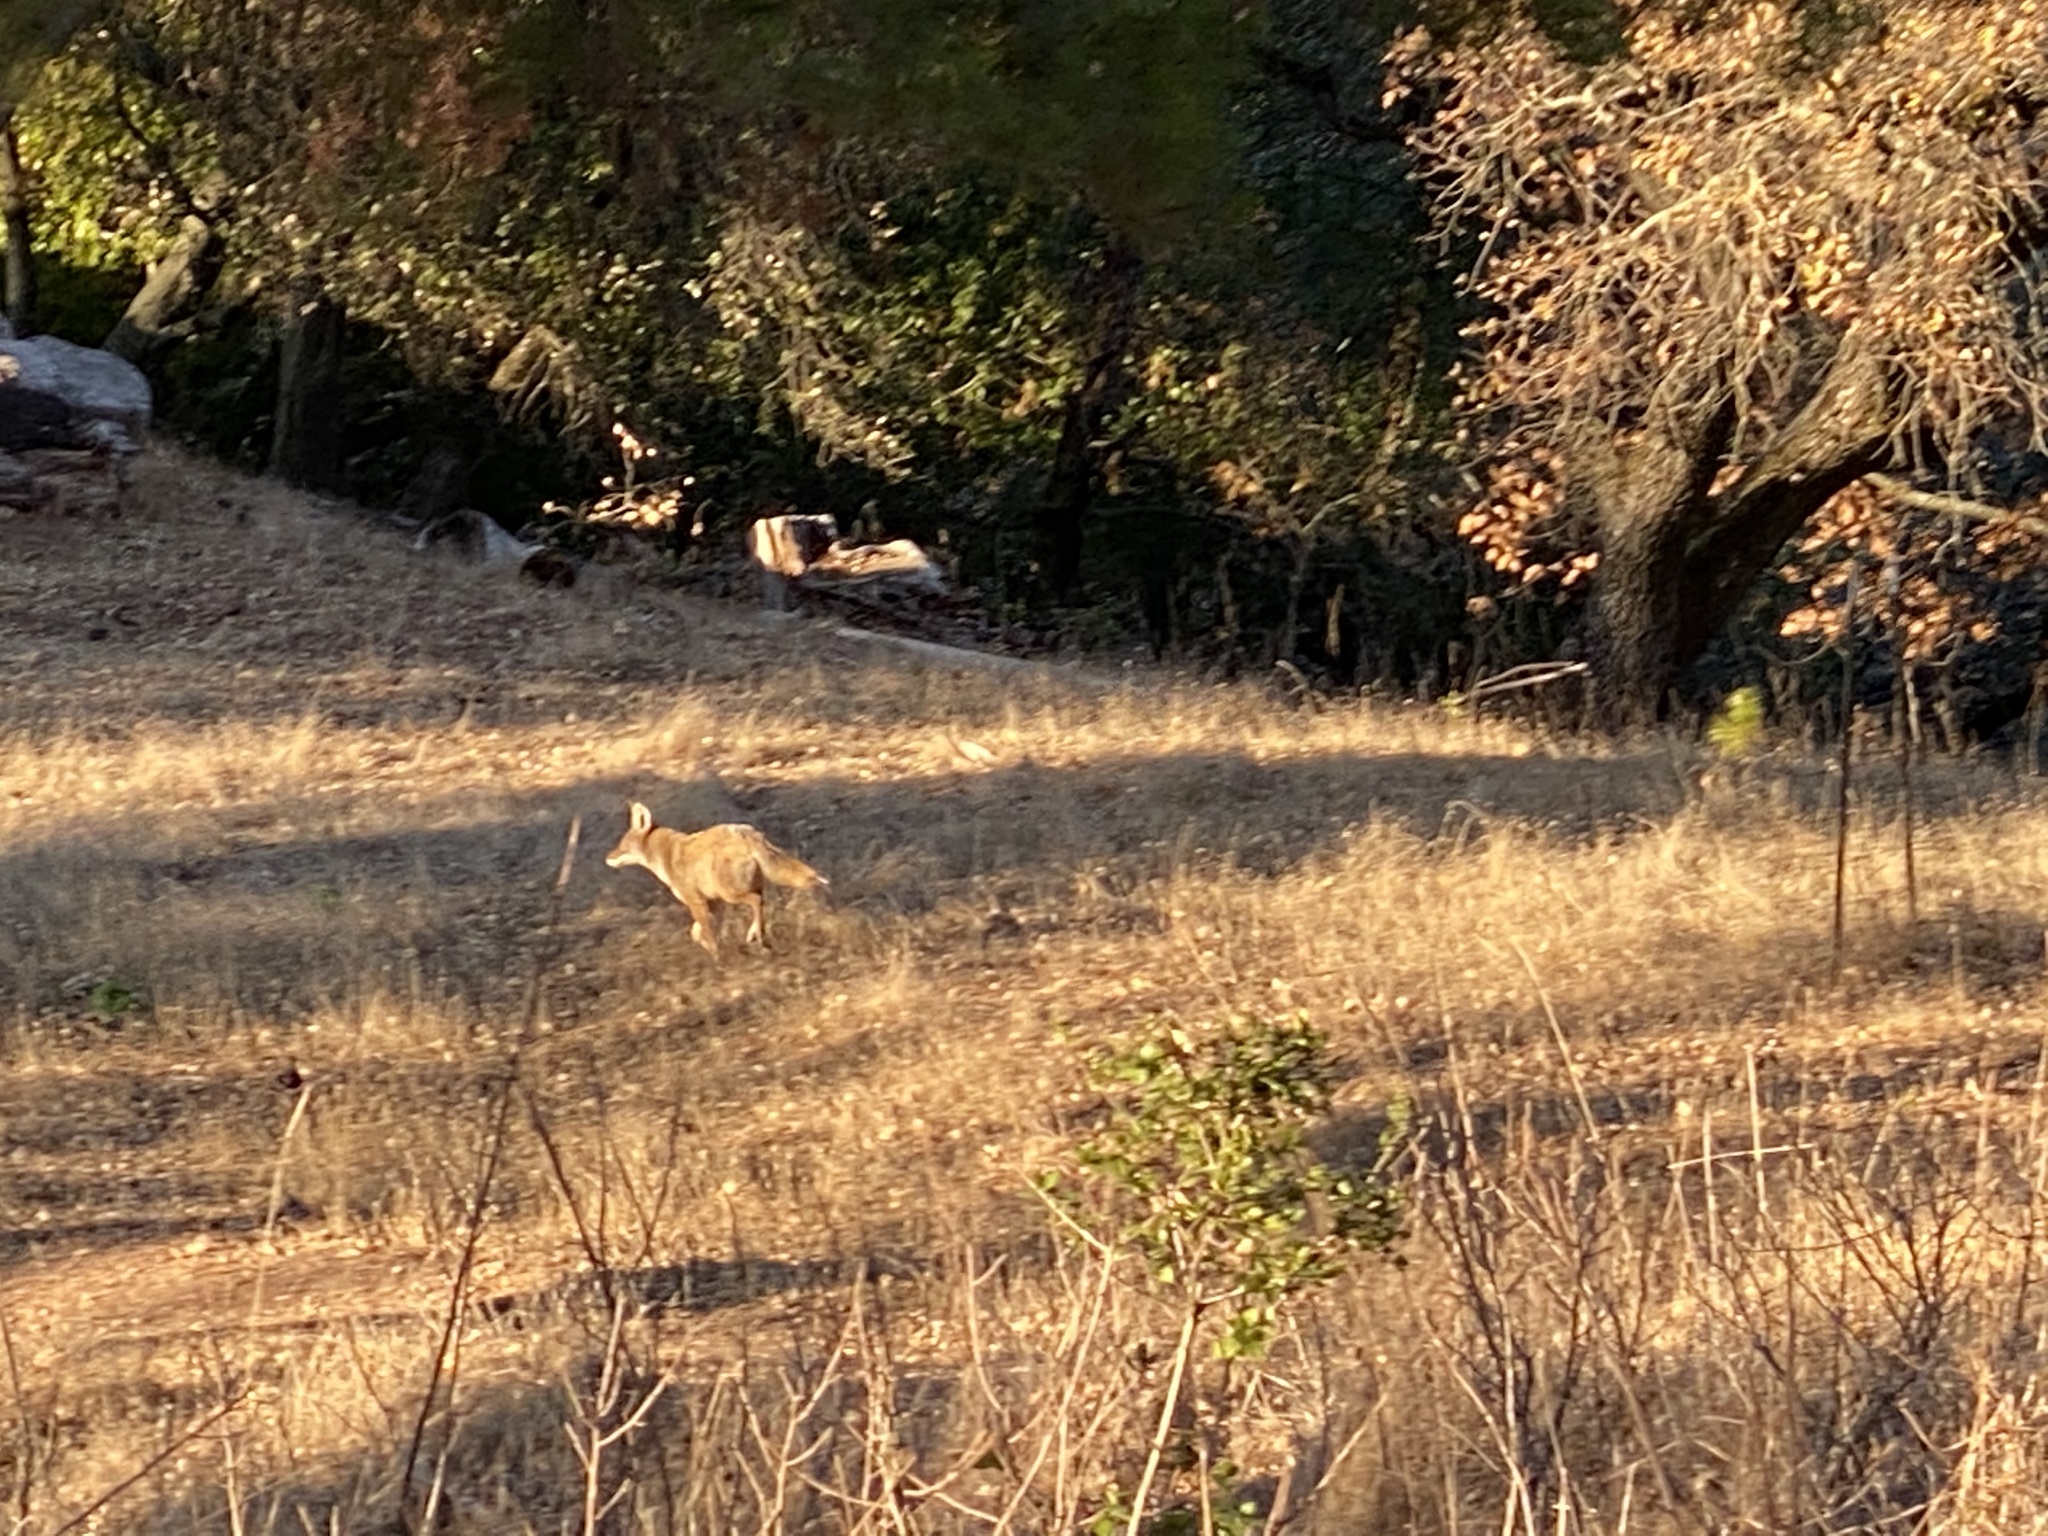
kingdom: Animalia
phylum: Chordata
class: Mammalia
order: Carnivora
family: Canidae
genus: Canis
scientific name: Canis latrans
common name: Coyote
